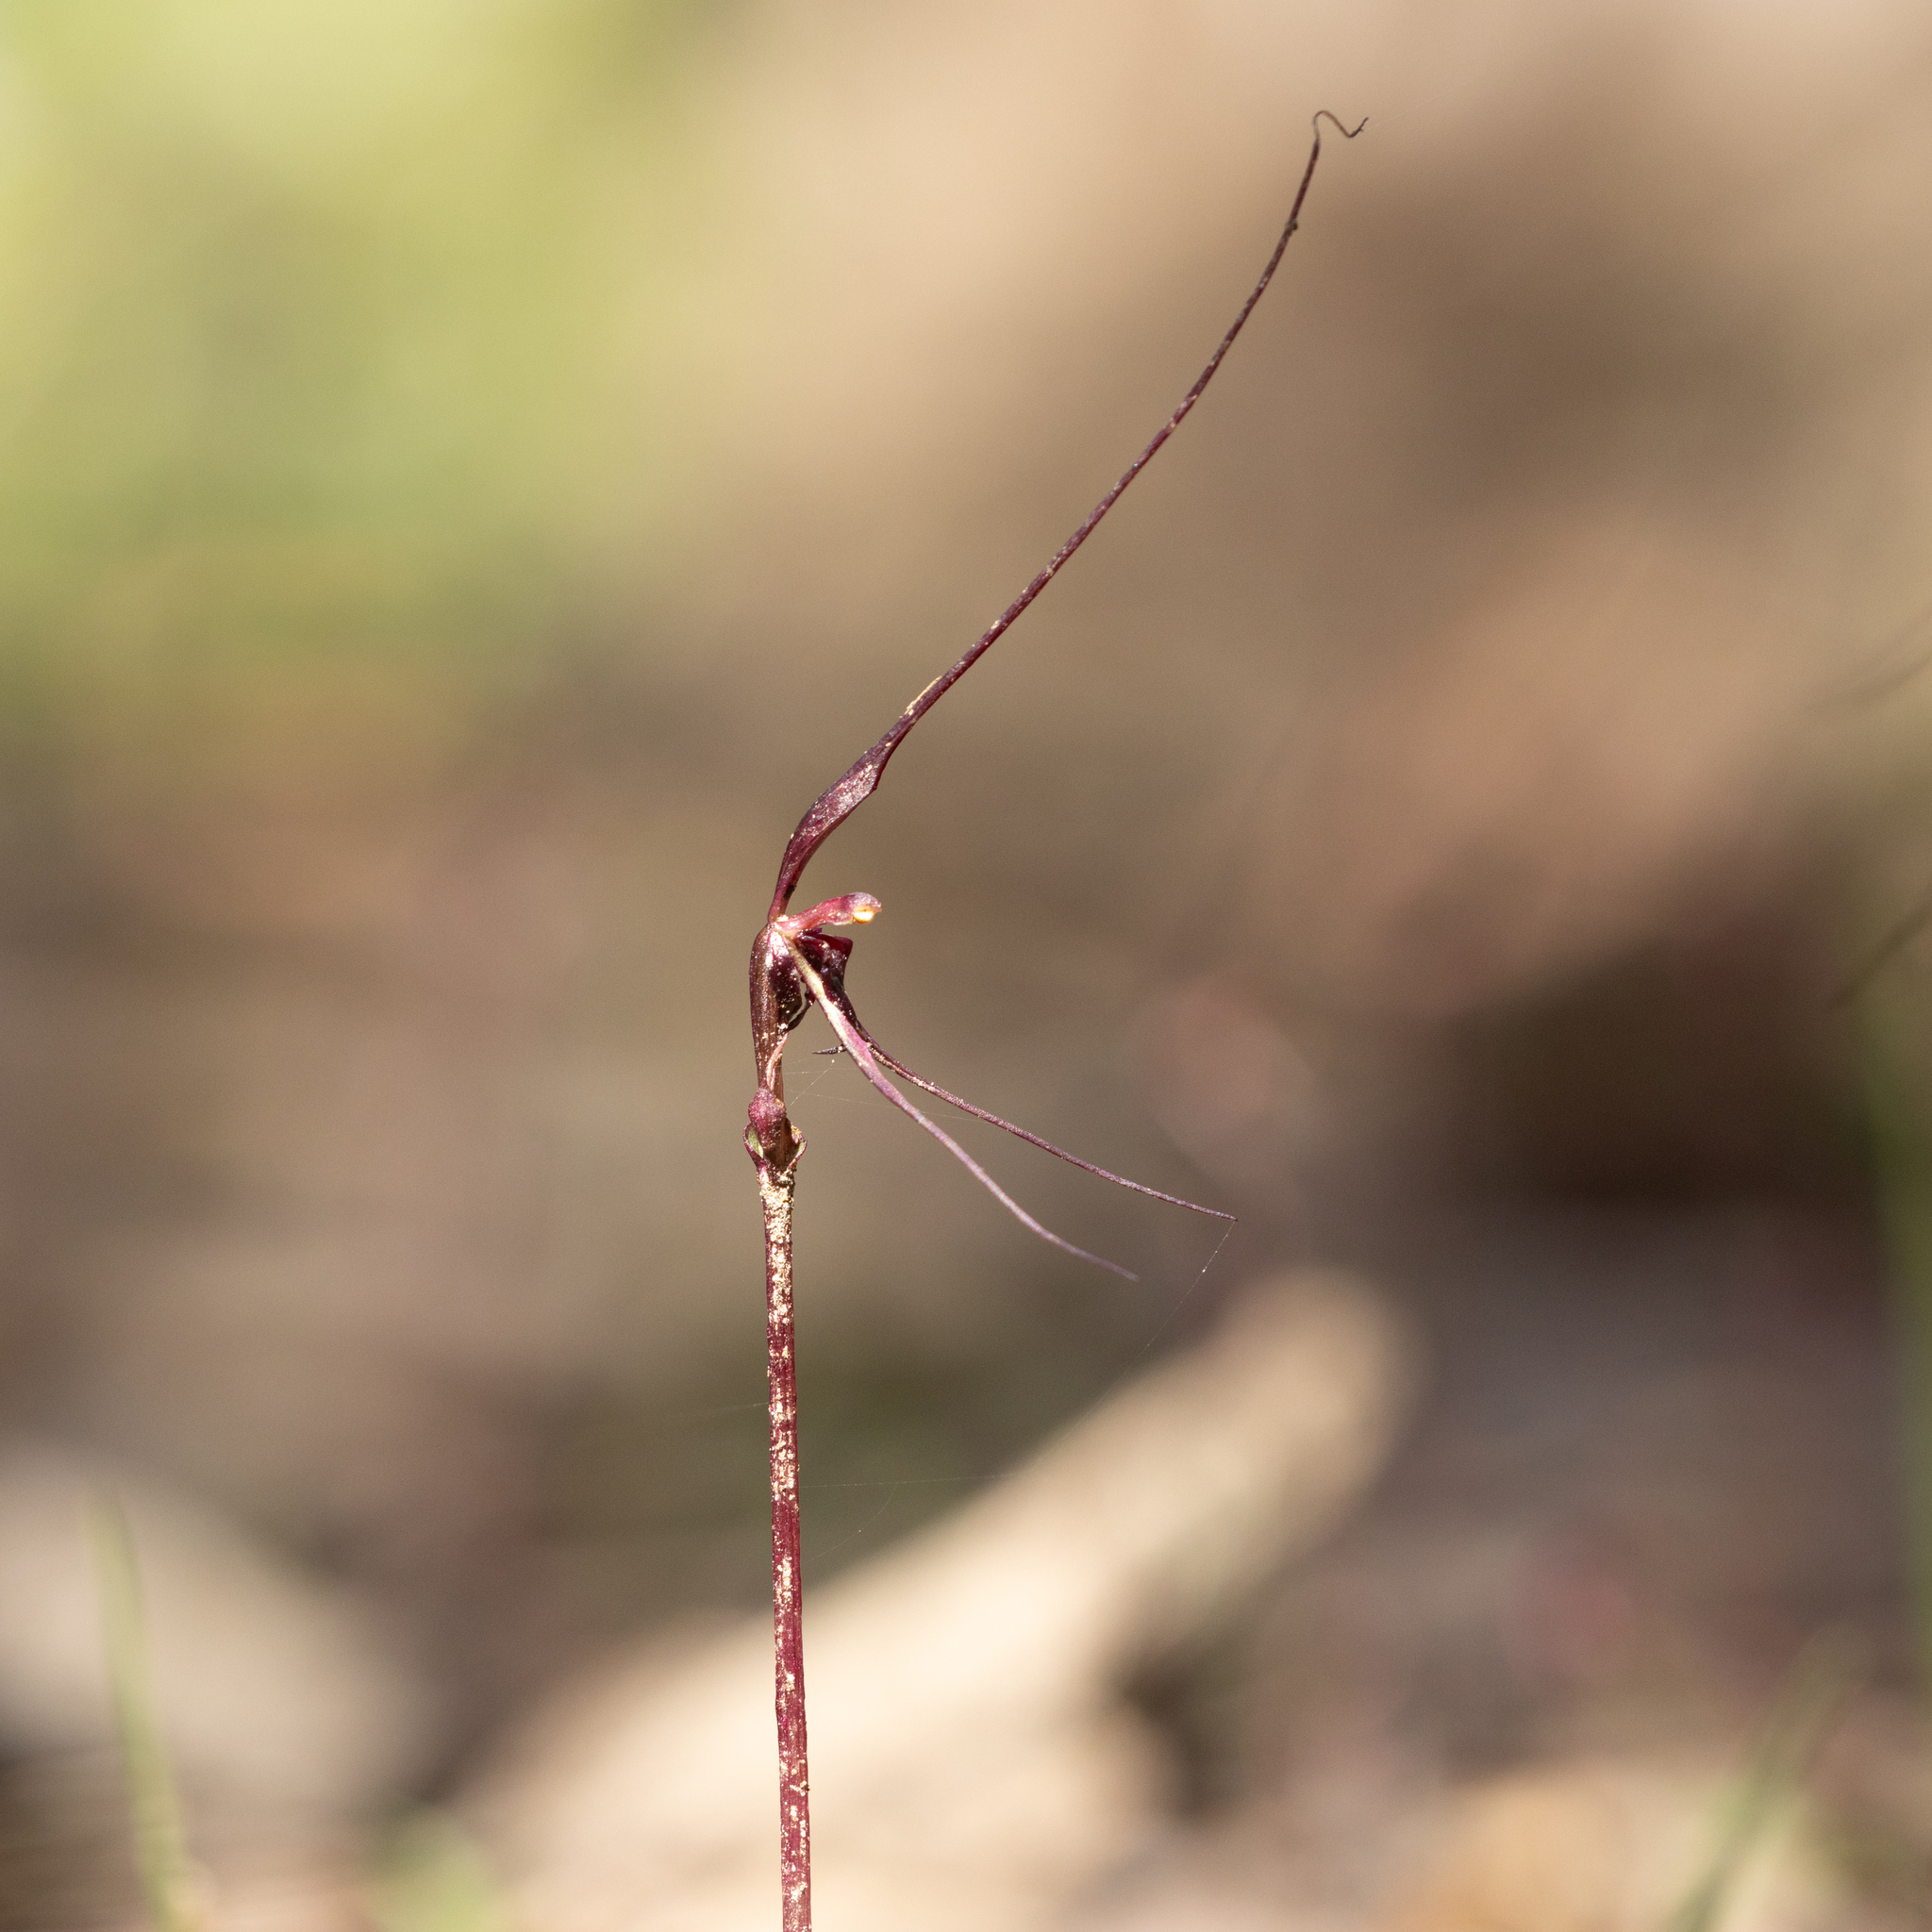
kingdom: Plantae
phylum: Tracheophyta
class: Liliopsida
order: Asparagales
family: Orchidaceae
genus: Acianthus
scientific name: Acianthus caudatus
